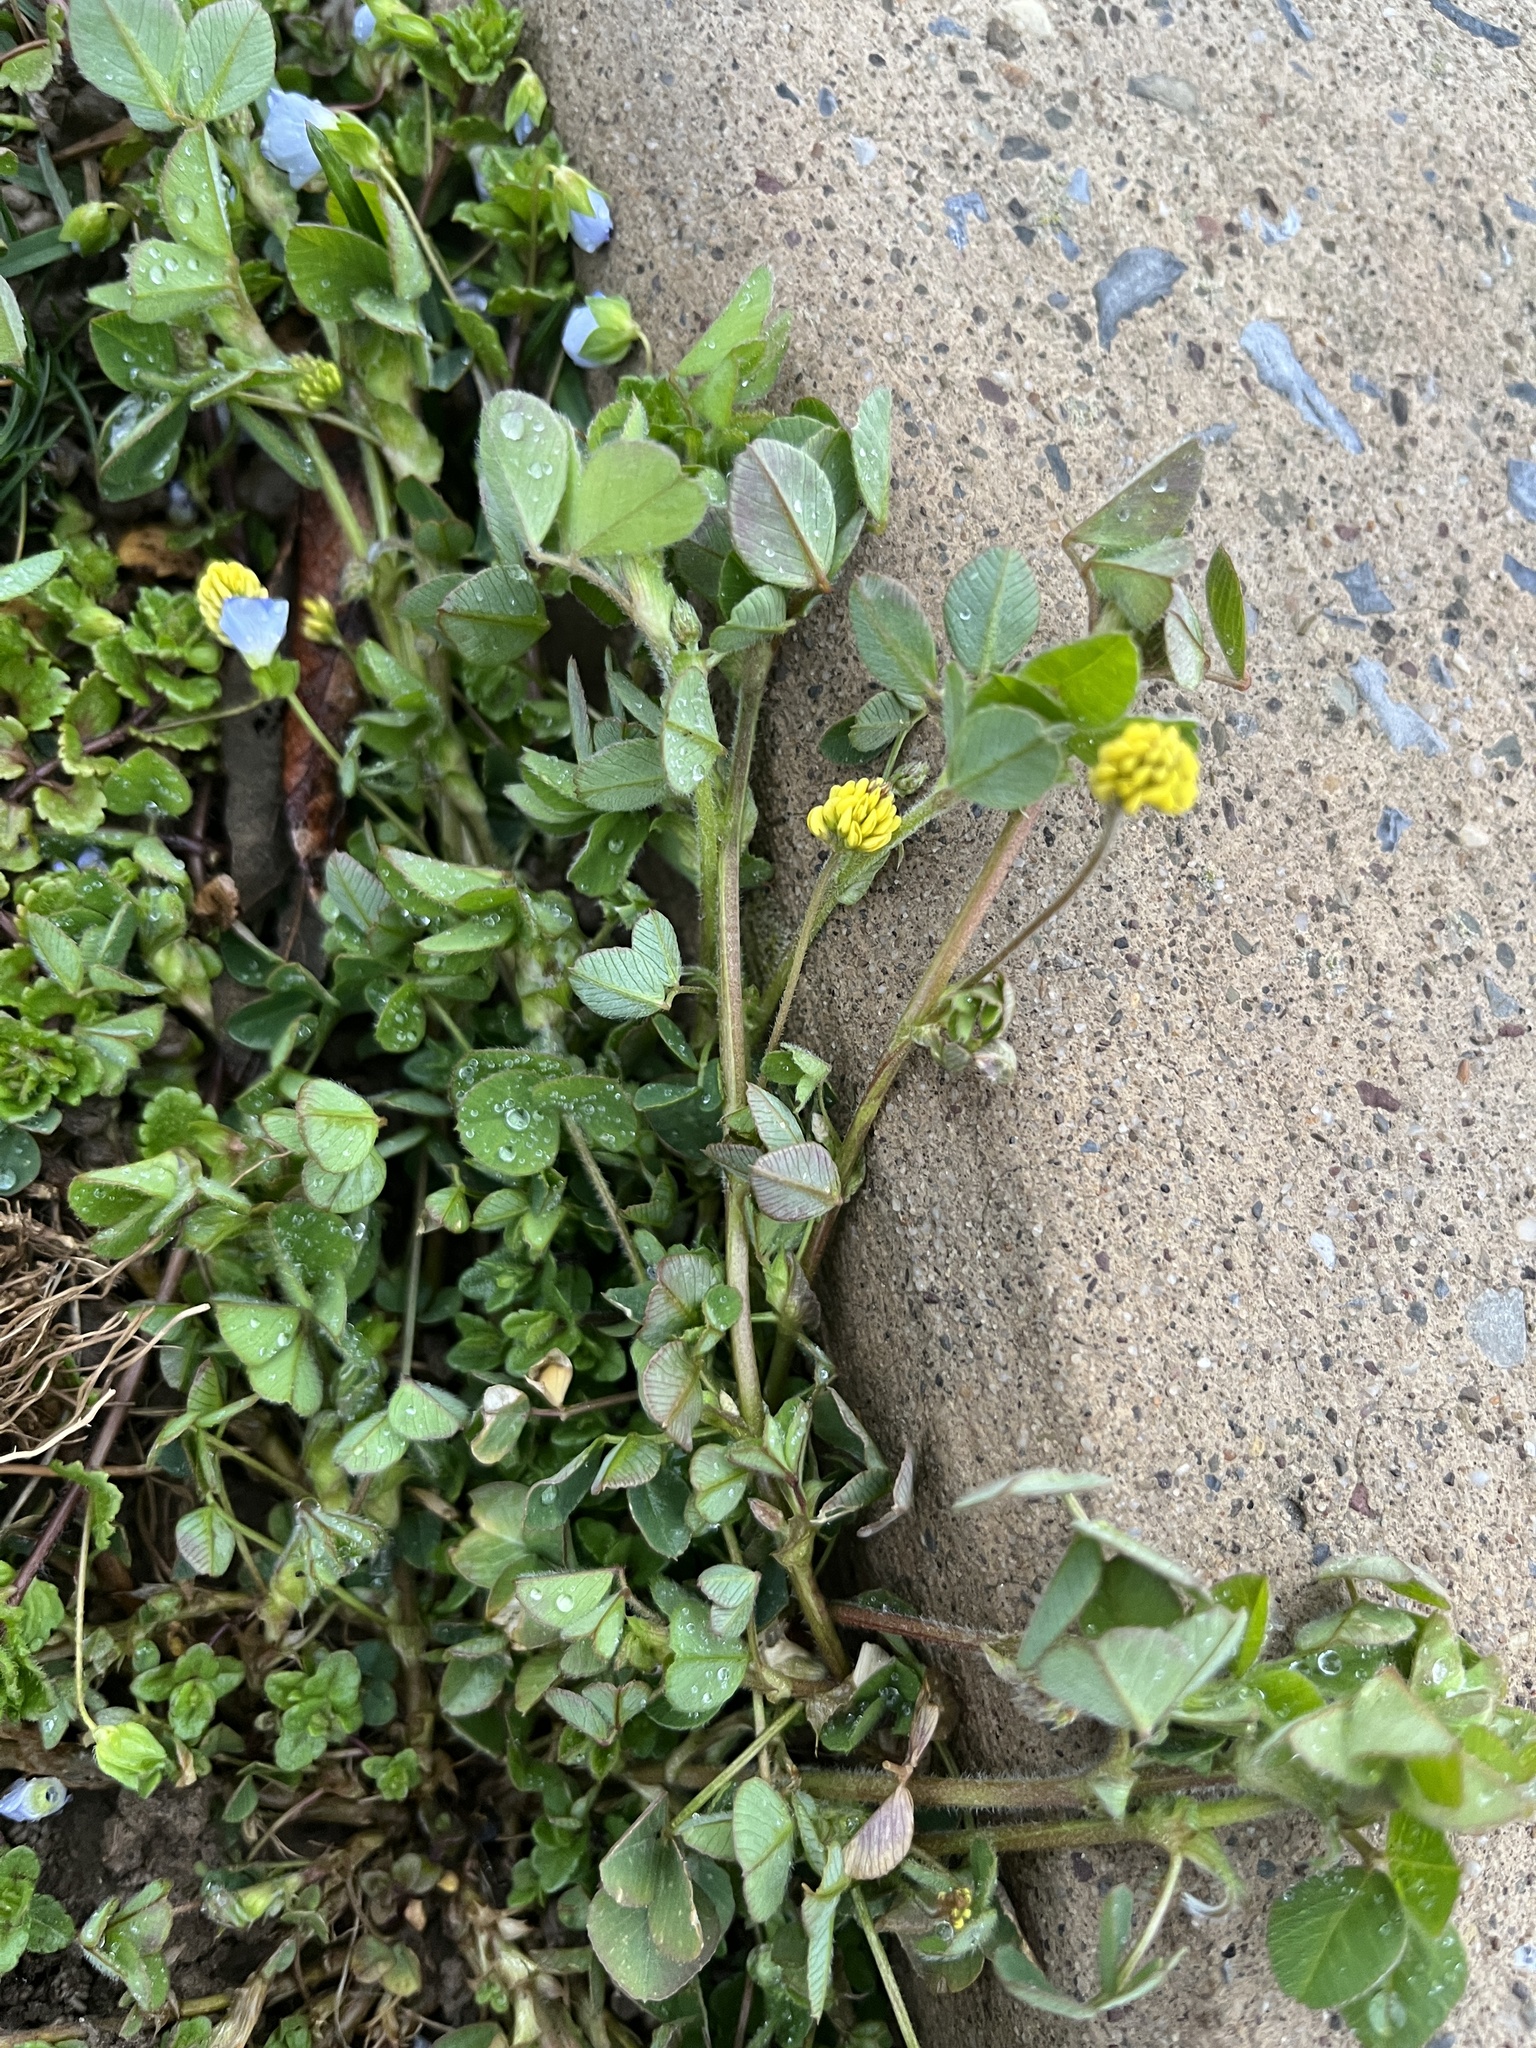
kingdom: Plantae
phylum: Tracheophyta
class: Magnoliopsida
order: Fabales
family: Fabaceae
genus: Medicago
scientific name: Medicago lupulina
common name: Black medick
